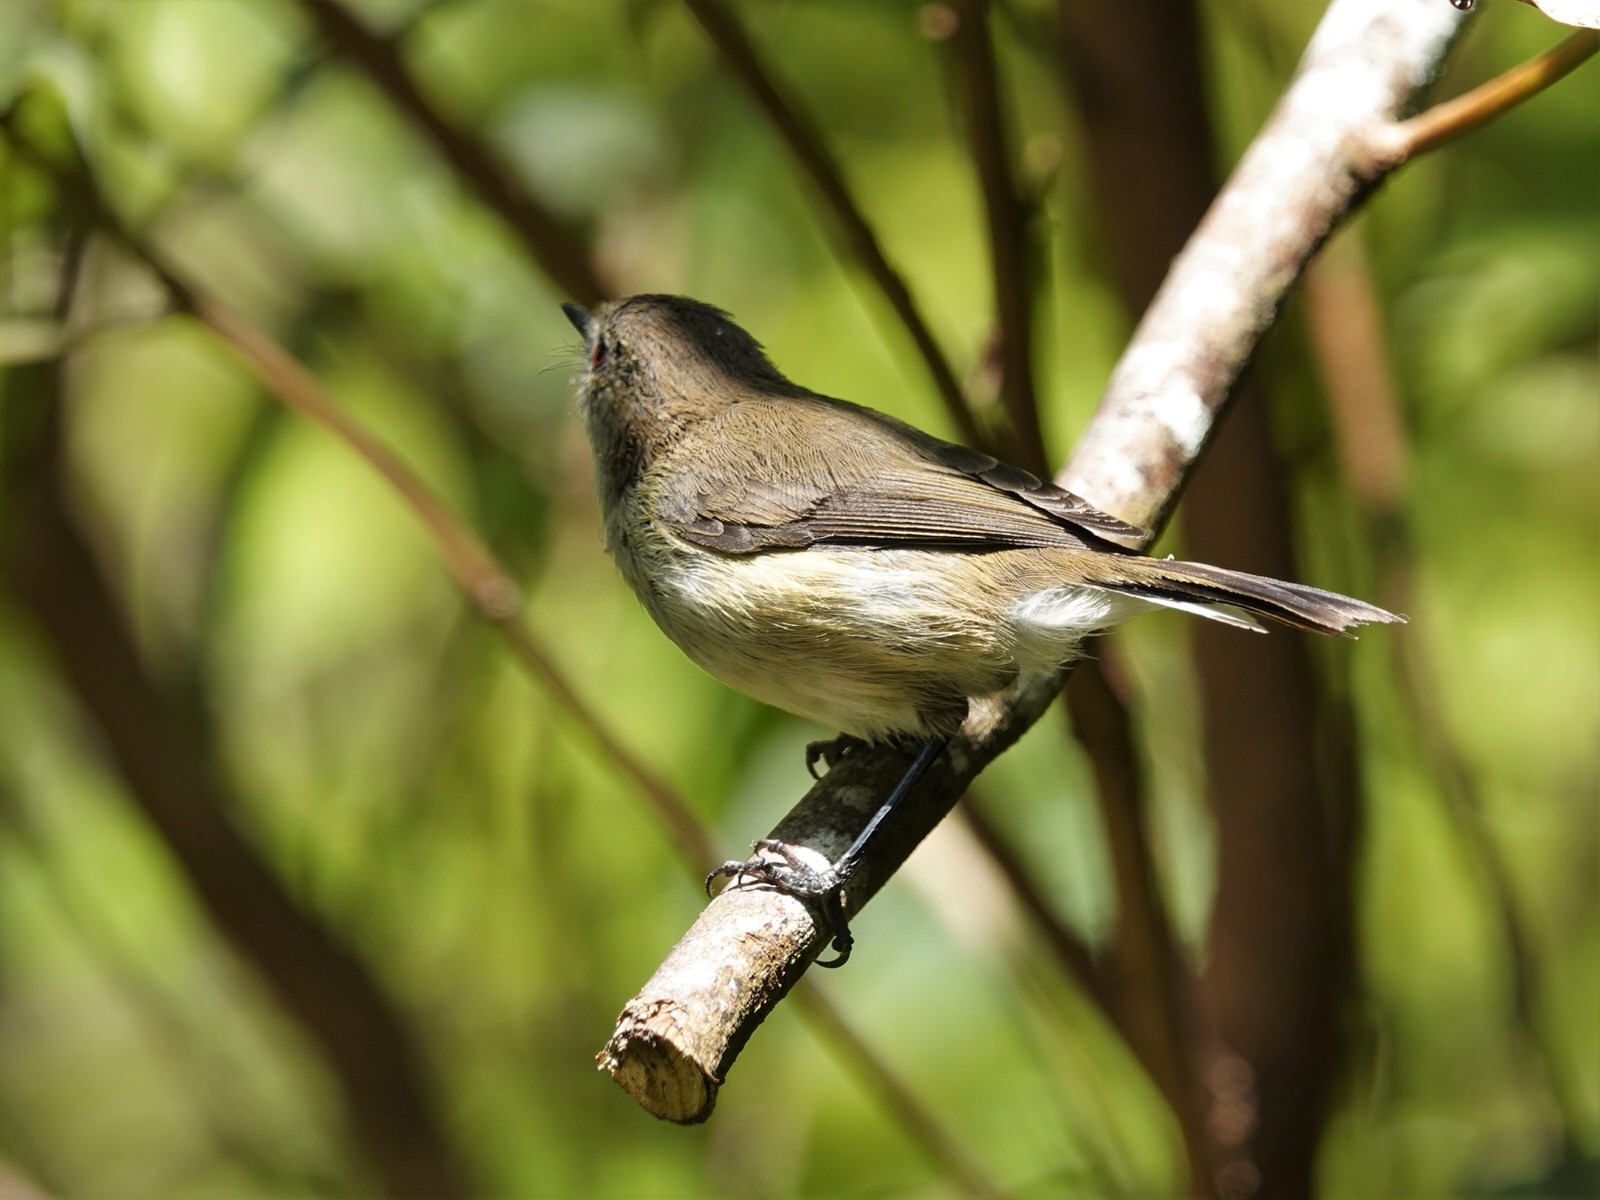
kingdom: Animalia
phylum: Chordata
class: Aves
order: Passeriformes
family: Acanthizidae
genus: Gerygone
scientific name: Gerygone igata
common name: Grey gerygone
